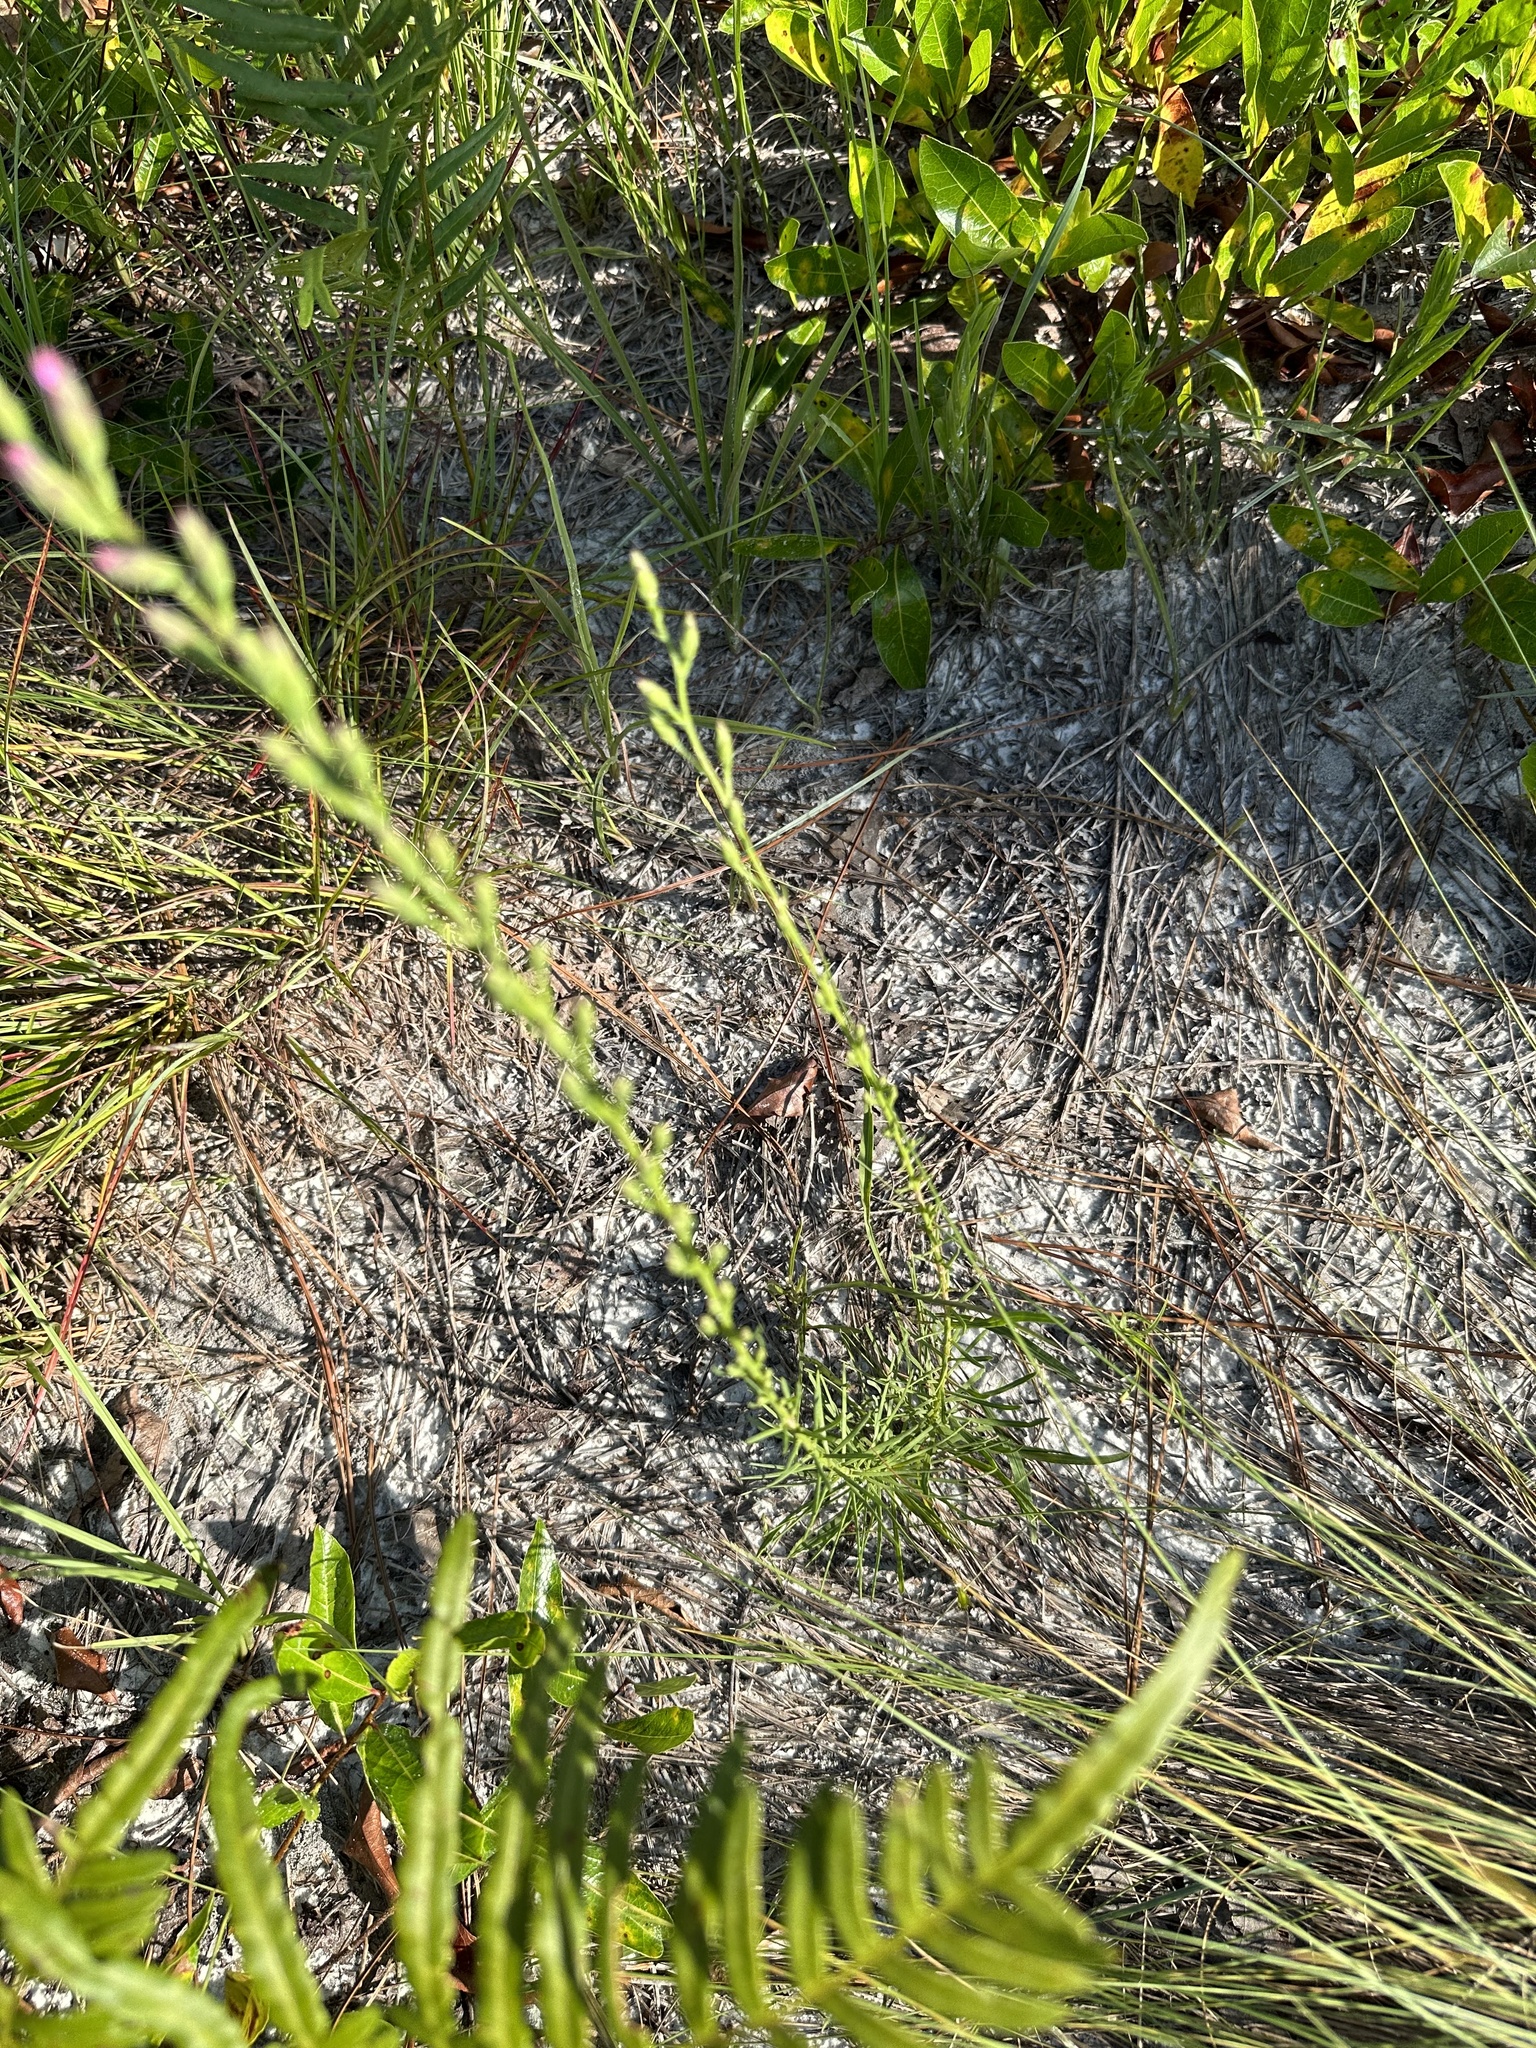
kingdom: Plantae
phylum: Tracheophyta
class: Magnoliopsida
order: Asterales
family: Asteraceae
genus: Liatris
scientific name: Liatris pauciflora
